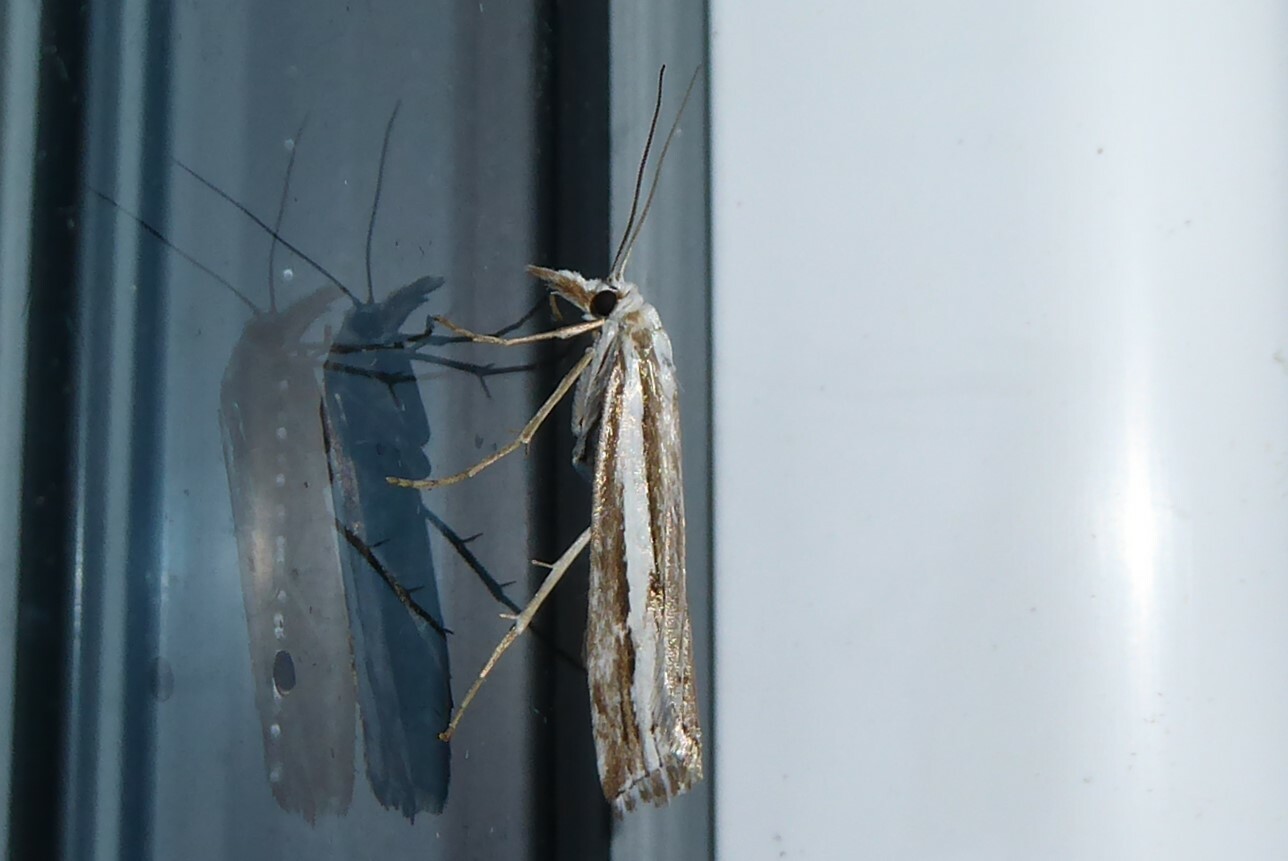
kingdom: Animalia
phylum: Arthropoda
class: Insecta
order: Lepidoptera
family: Crambidae
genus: Orocrambus
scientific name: Orocrambus vittellus
